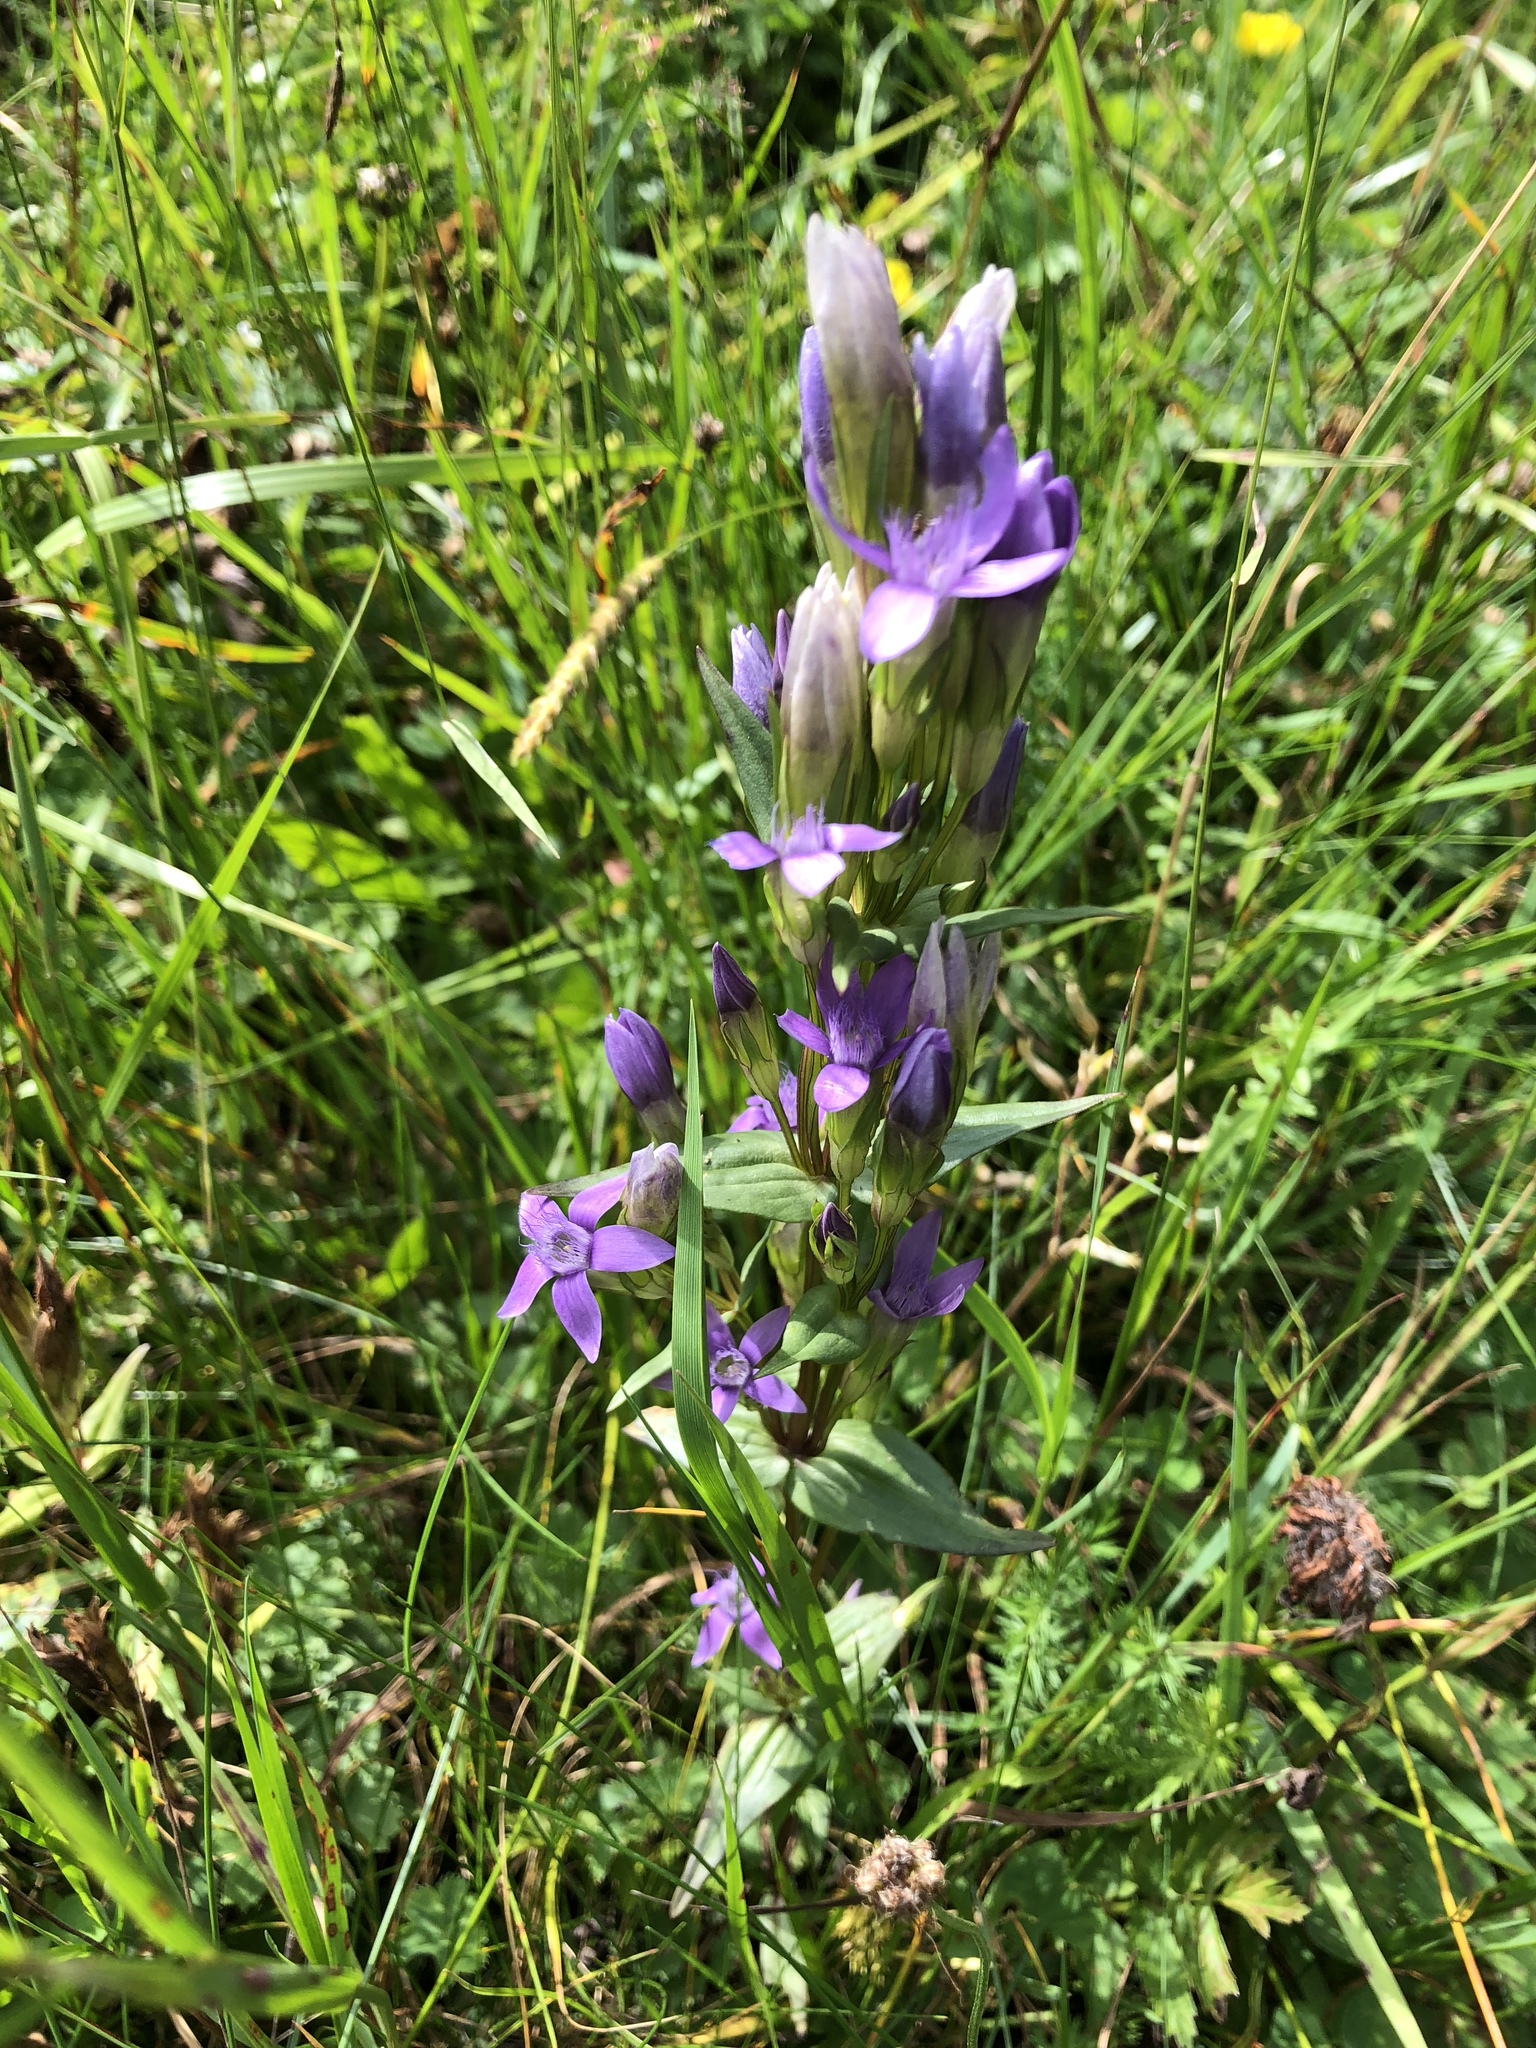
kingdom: Plantae
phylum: Tracheophyta
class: Magnoliopsida
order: Gentianales
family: Gentianaceae
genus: Gentianella
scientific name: Gentianella austriaca
